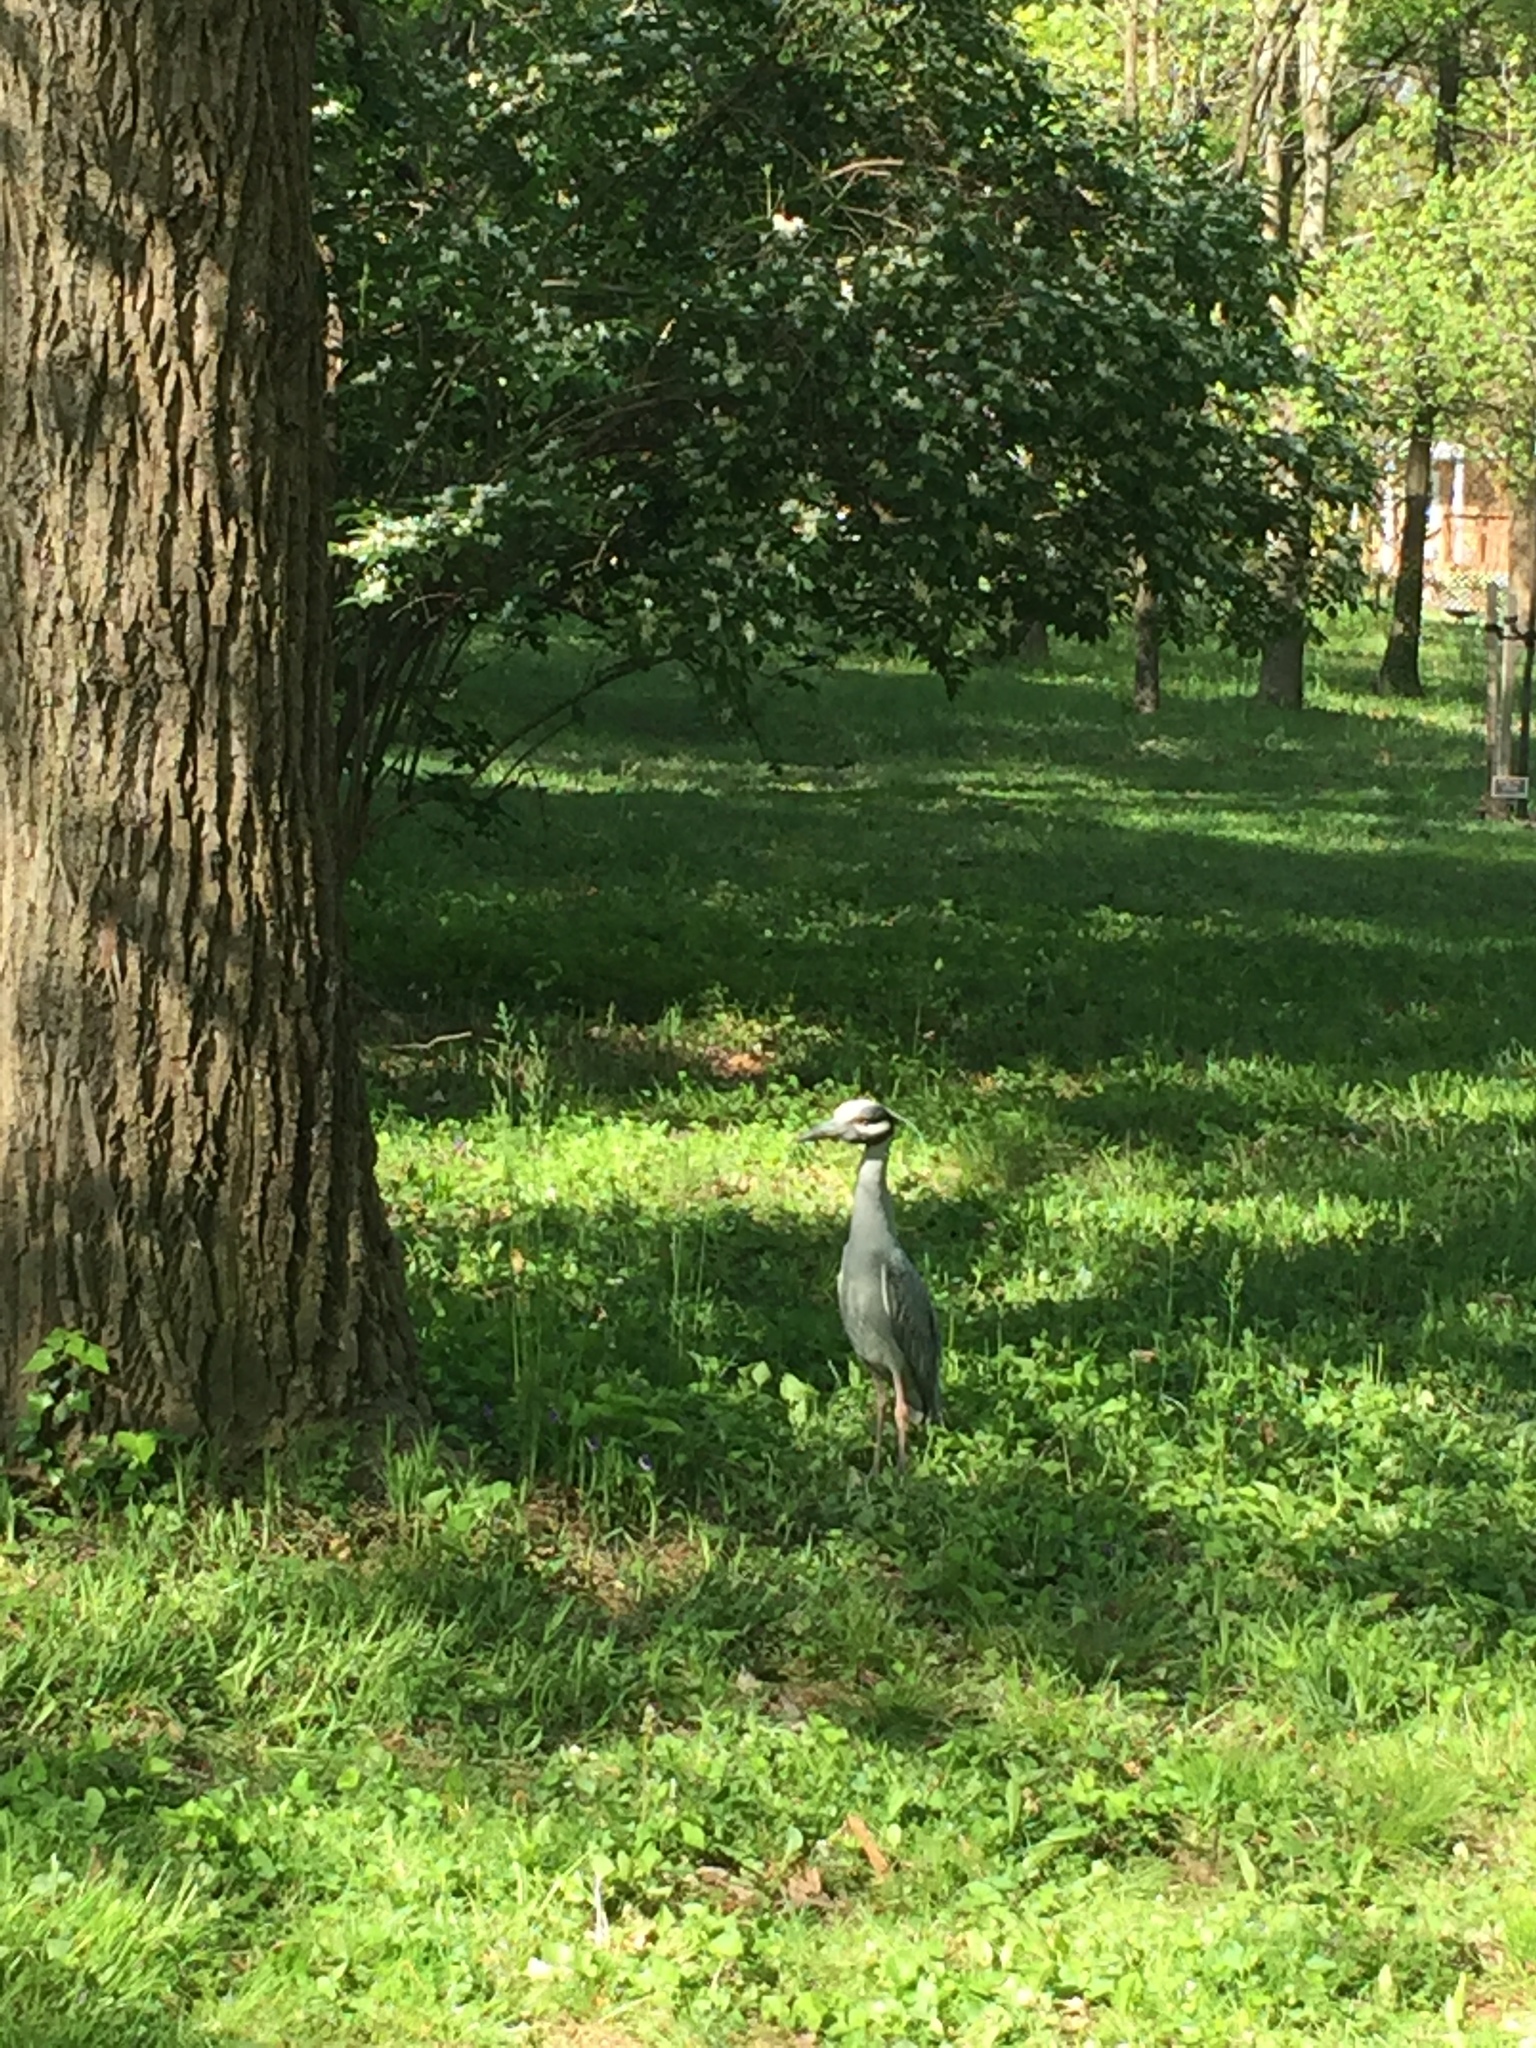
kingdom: Animalia
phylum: Chordata
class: Aves
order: Pelecaniformes
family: Ardeidae
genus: Nyctanassa
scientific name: Nyctanassa violacea
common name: Yellow-crowned night heron
